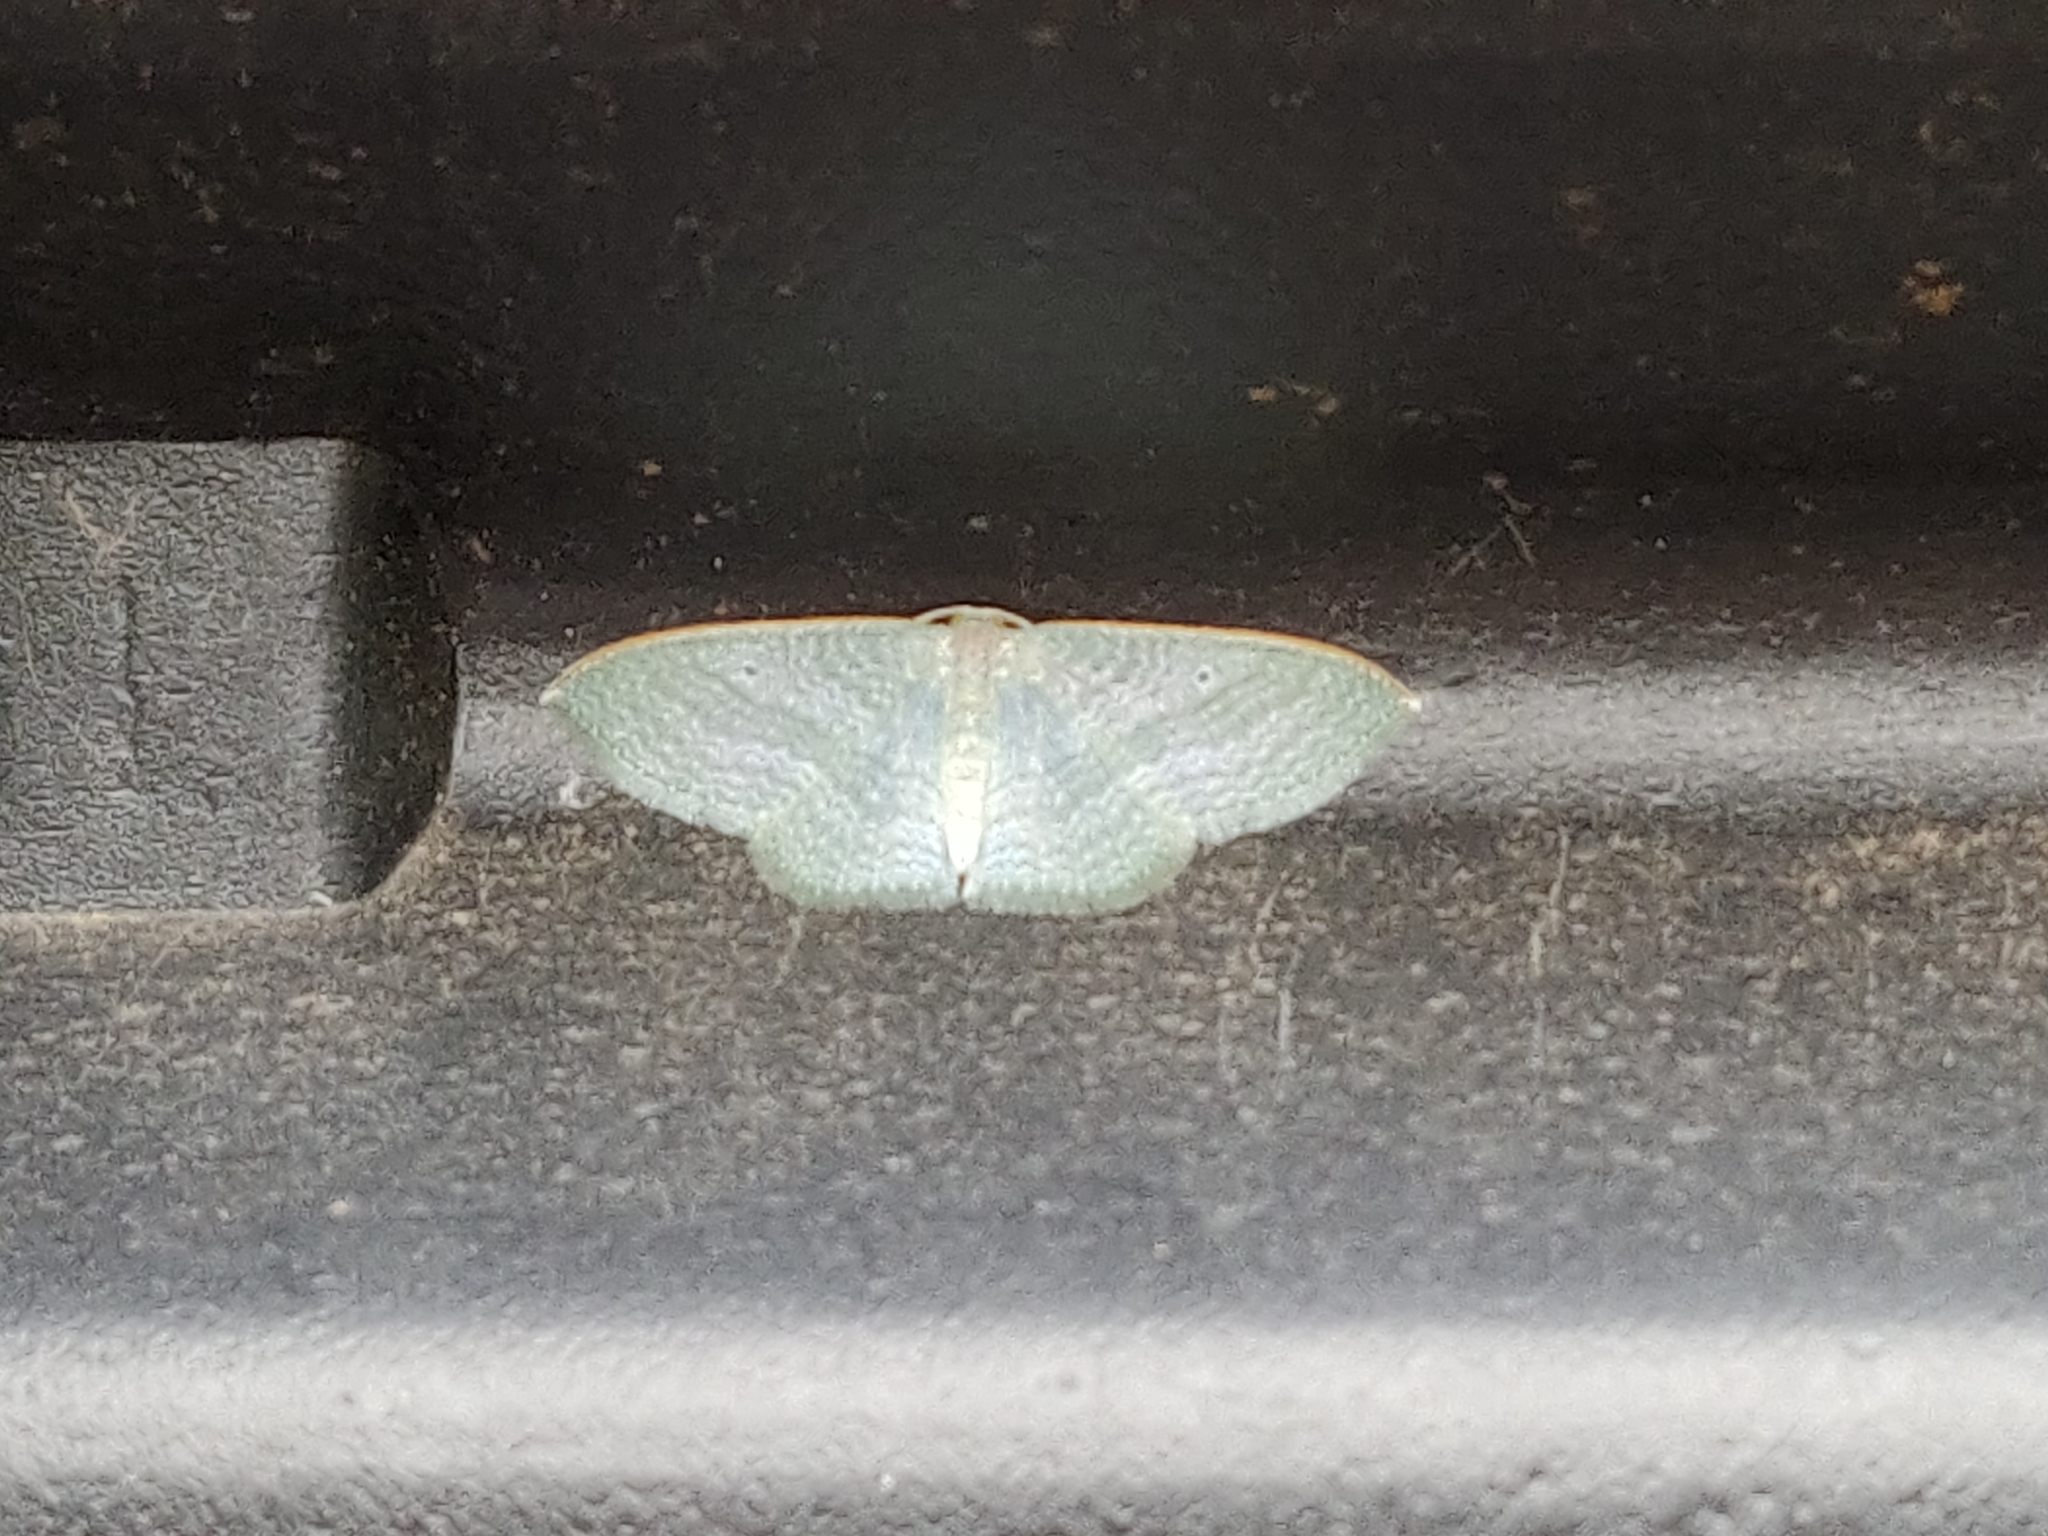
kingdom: Animalia
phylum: Arthropoda
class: Insecta
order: Lepidoptera
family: Geometridae
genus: Poecilasthena
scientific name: Poecilasthena thalassias
